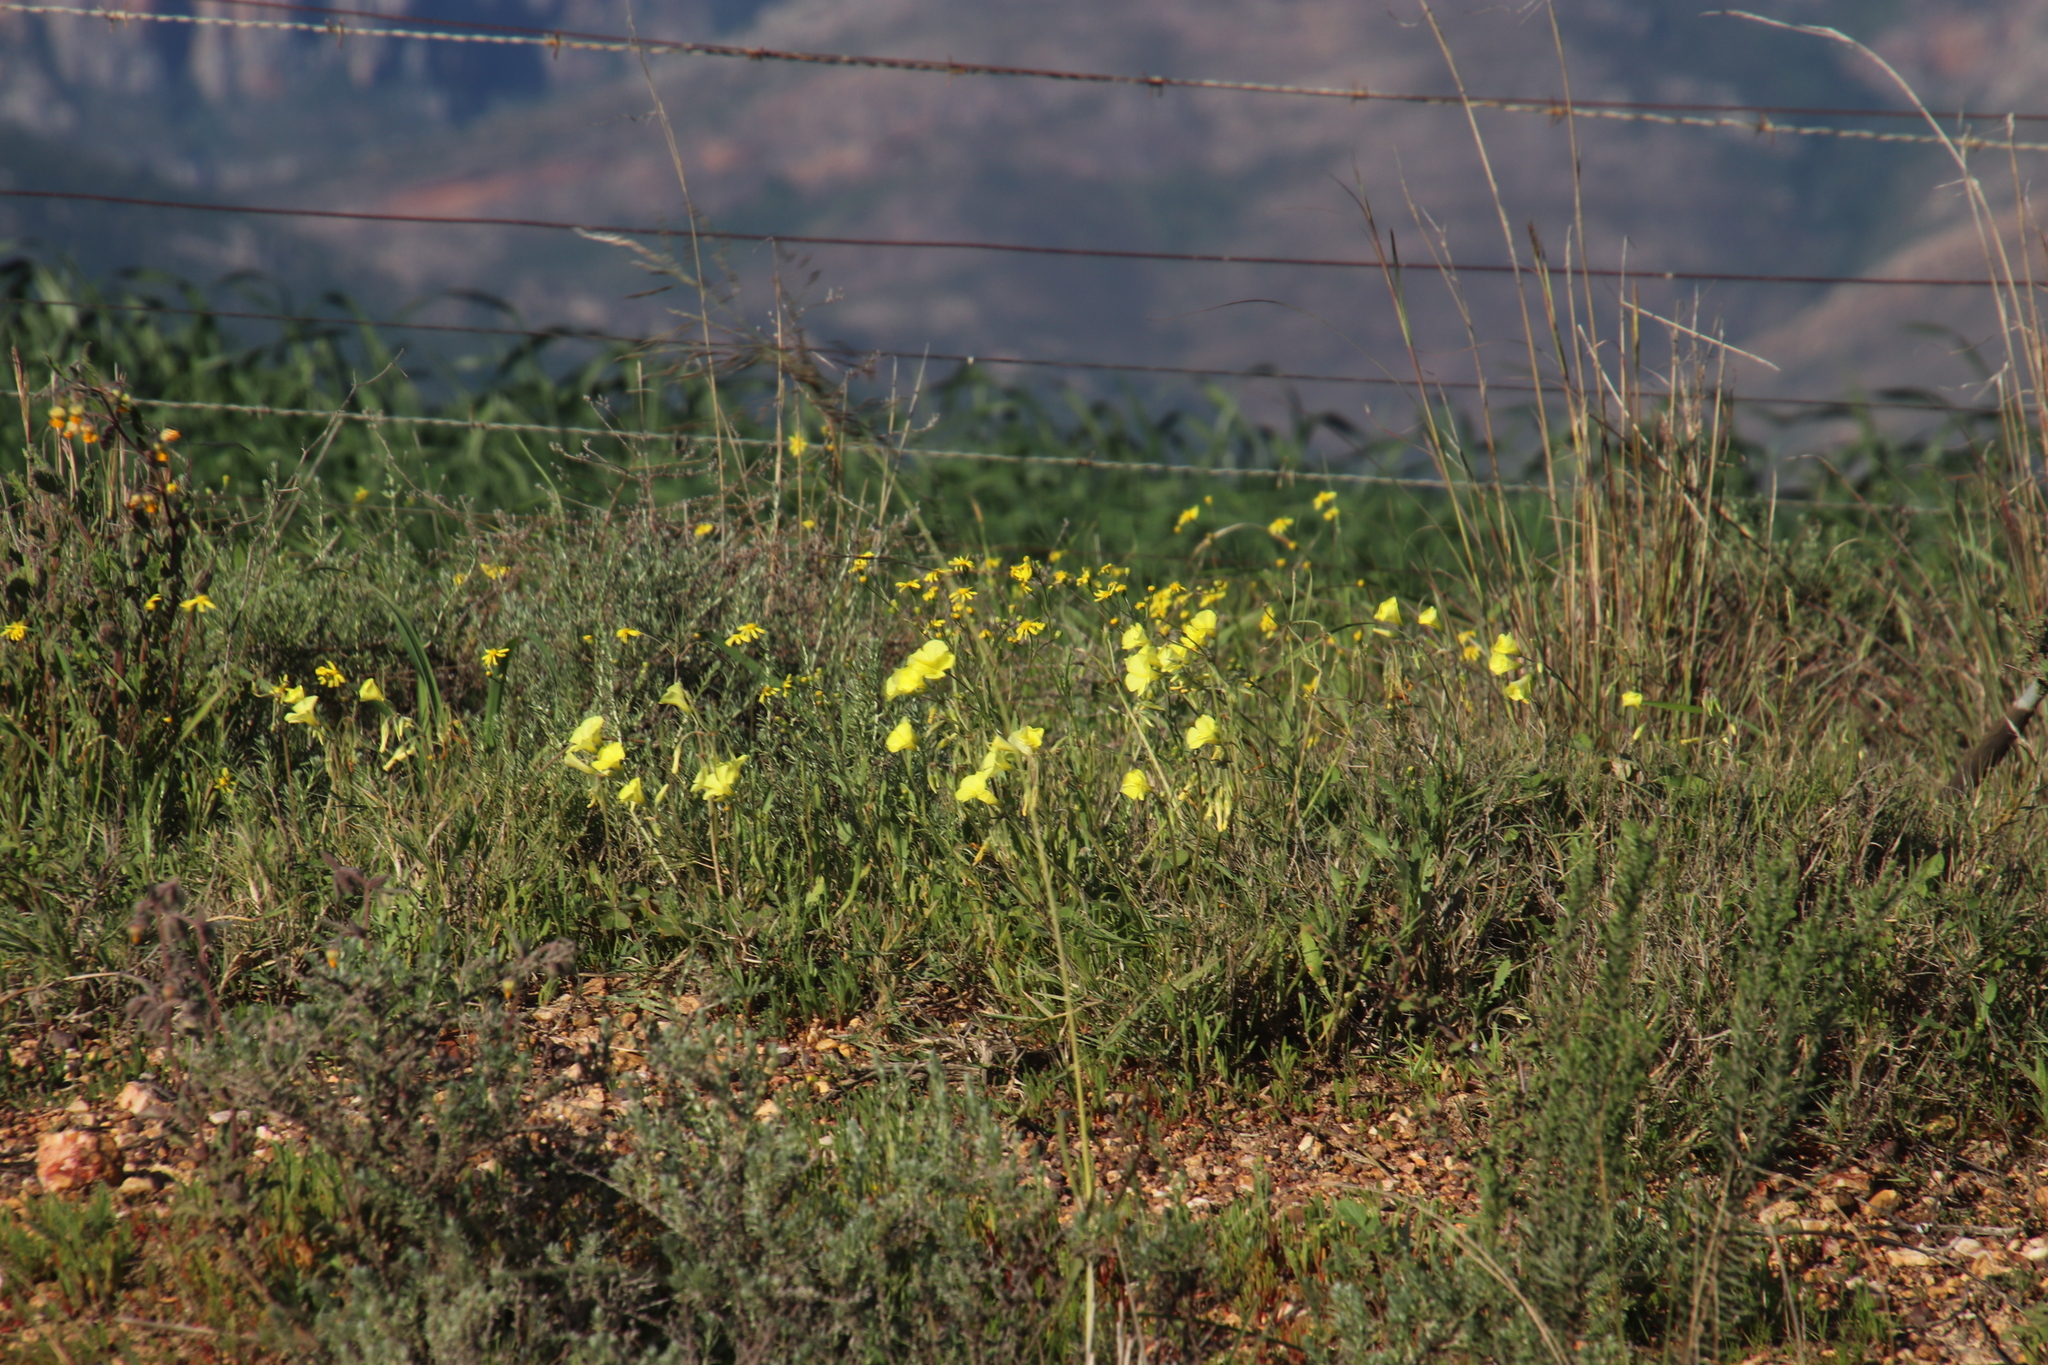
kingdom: Plantae
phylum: Tracheophyta
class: Magnoliopsida
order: Oxalidales
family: Oxalidaceae
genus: Oxalis
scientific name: Oxalis pes-caprae
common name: Bermuda-buttercup
